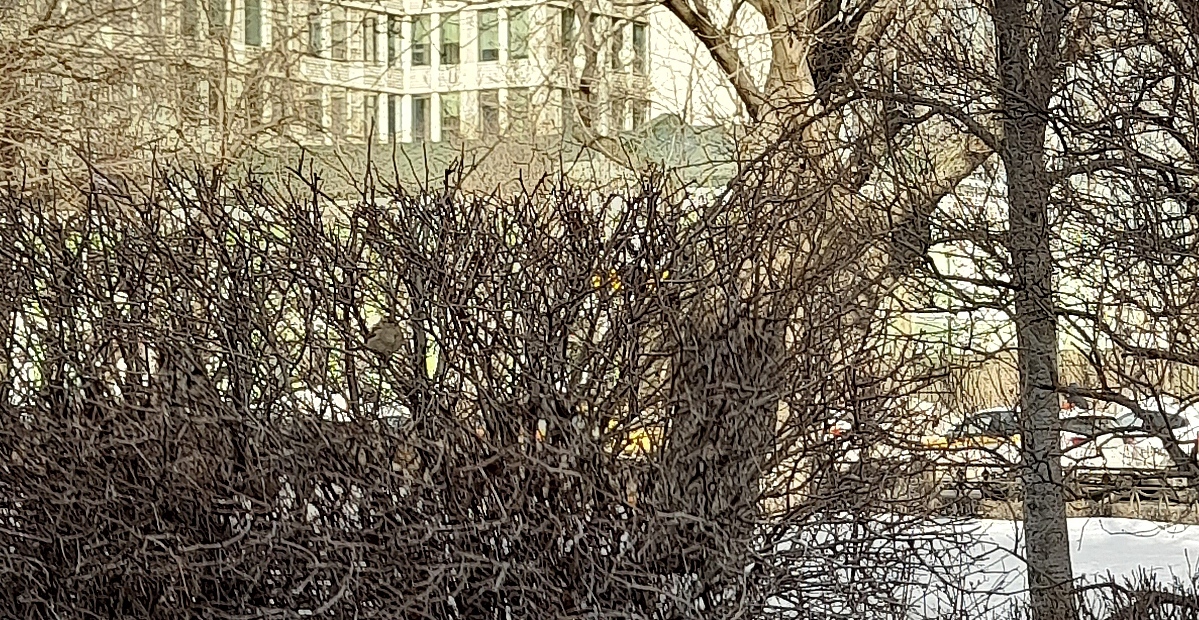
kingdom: Animalia
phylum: Chordata
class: Aves
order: Passeriformes
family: Passeridae
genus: Passer
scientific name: Passer domesticus
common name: House sparrow
